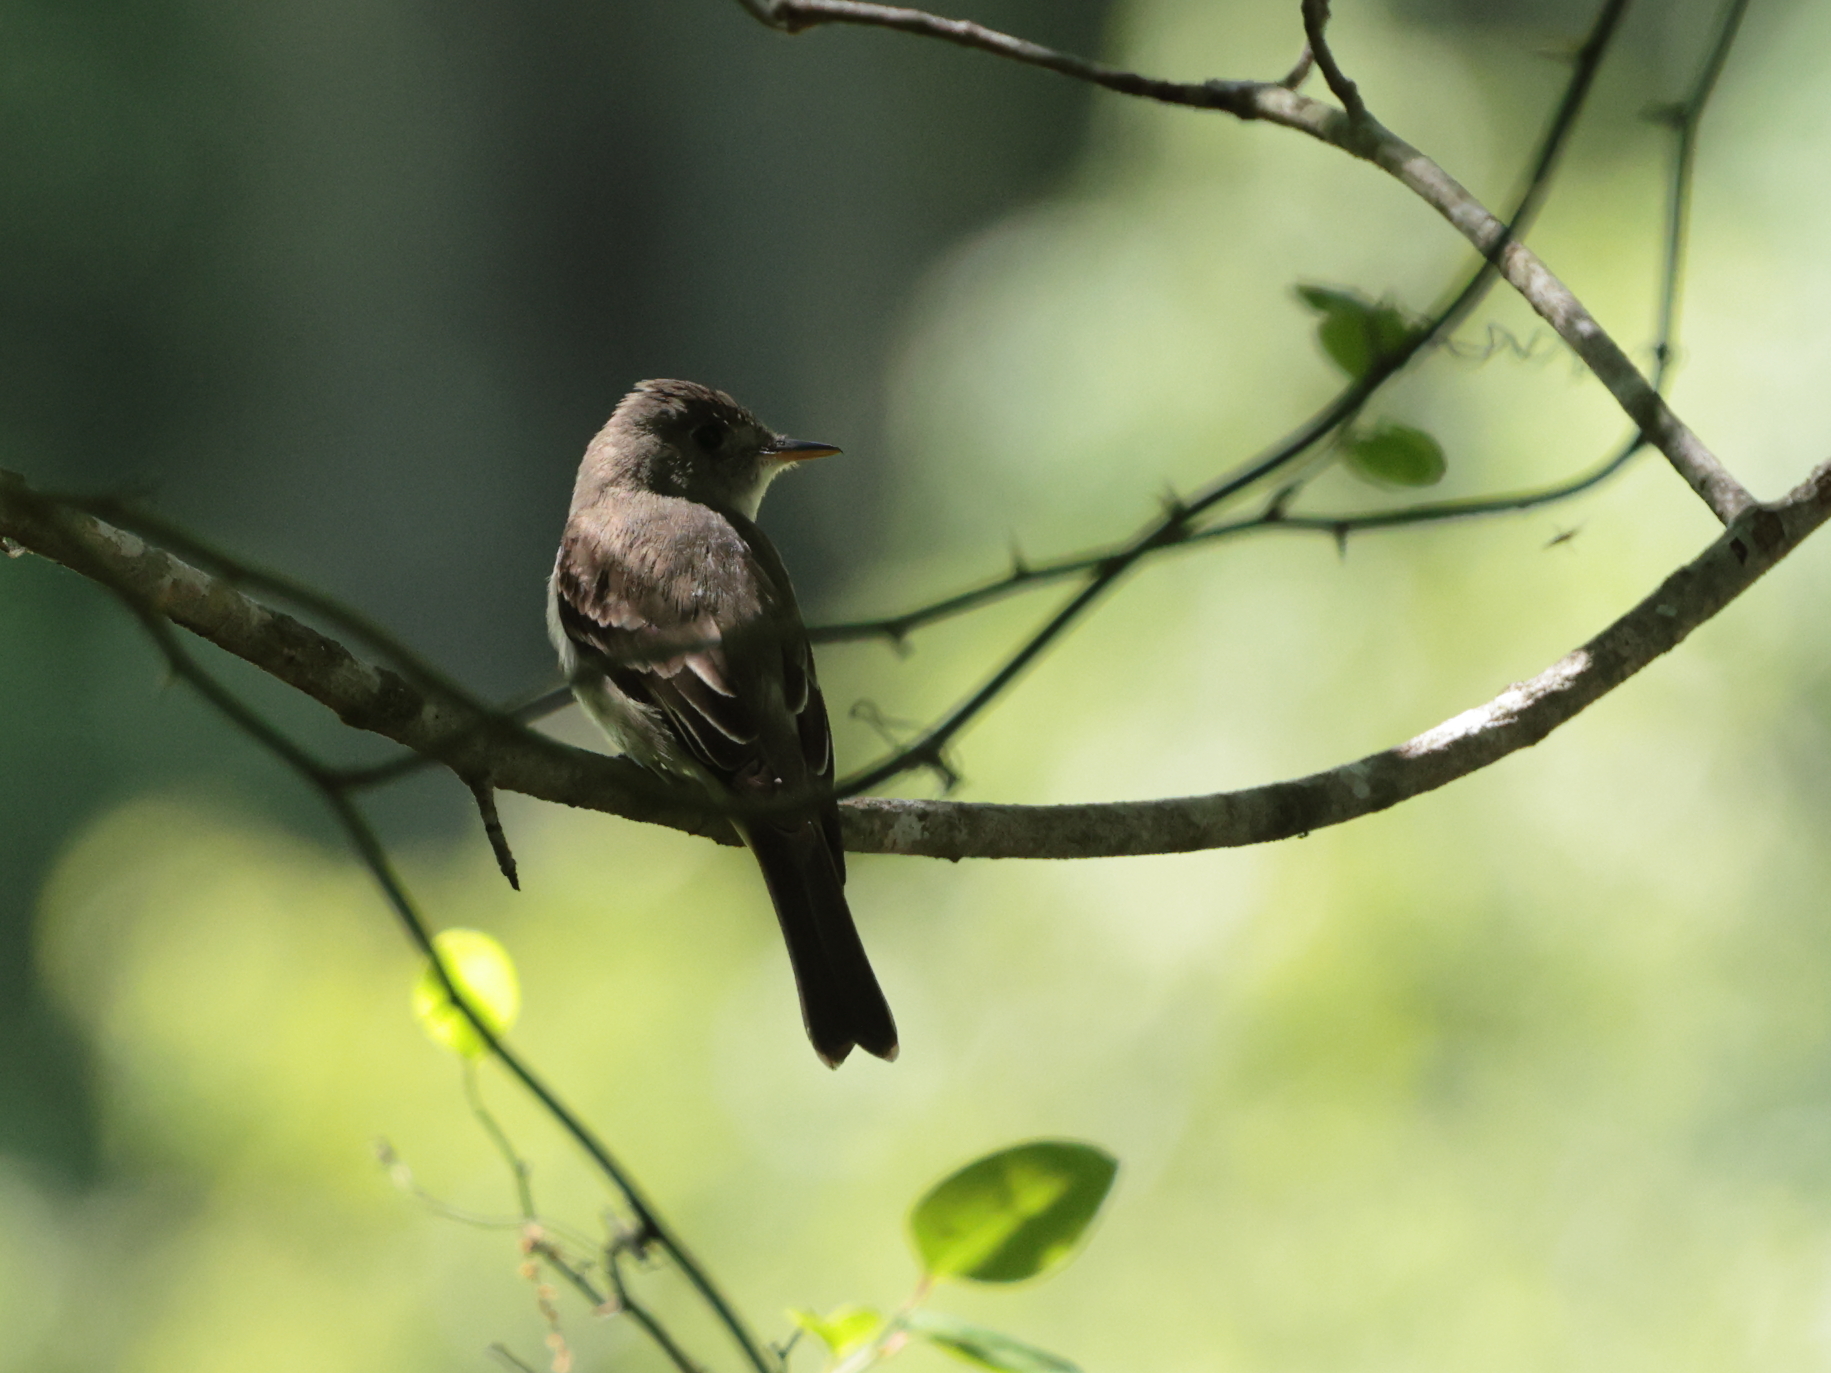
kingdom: Animalia
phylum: Chordata
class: Aves
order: Passeriformes
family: Tyrannidae
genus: Contopus
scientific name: Contopus virens
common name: Eastern wood-pewee
